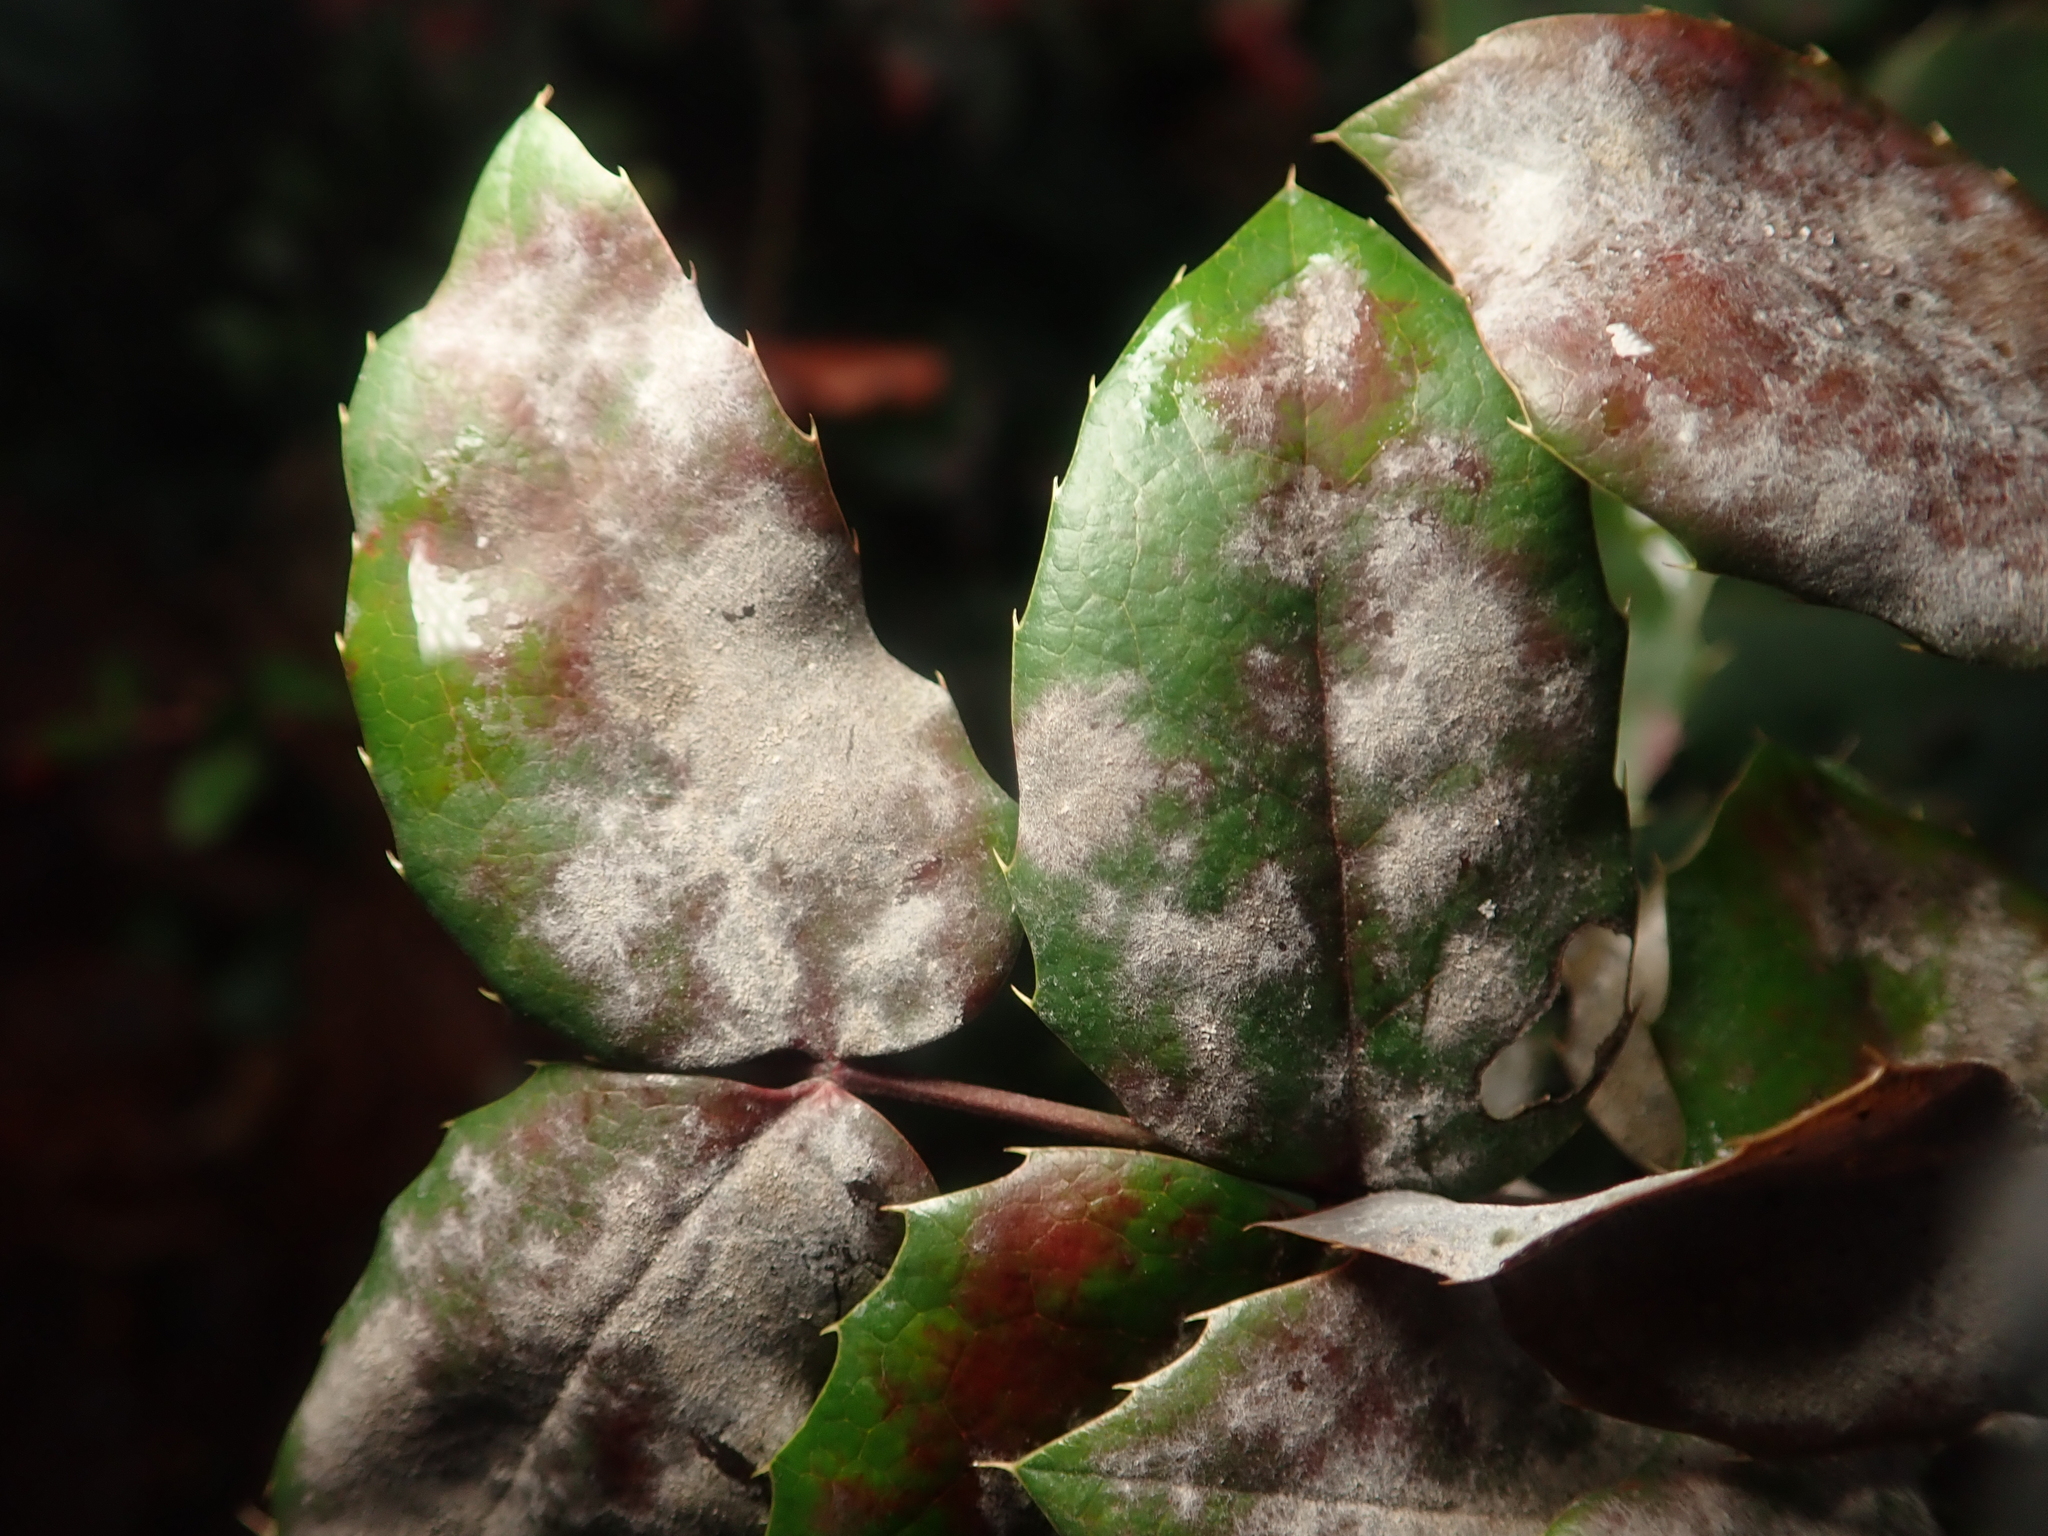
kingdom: Fungi
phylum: Ascomycota
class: Leotiomycetes
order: Helotiales
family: Erysiphaceae
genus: Erysiphe
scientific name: Erysiphe berberidis
